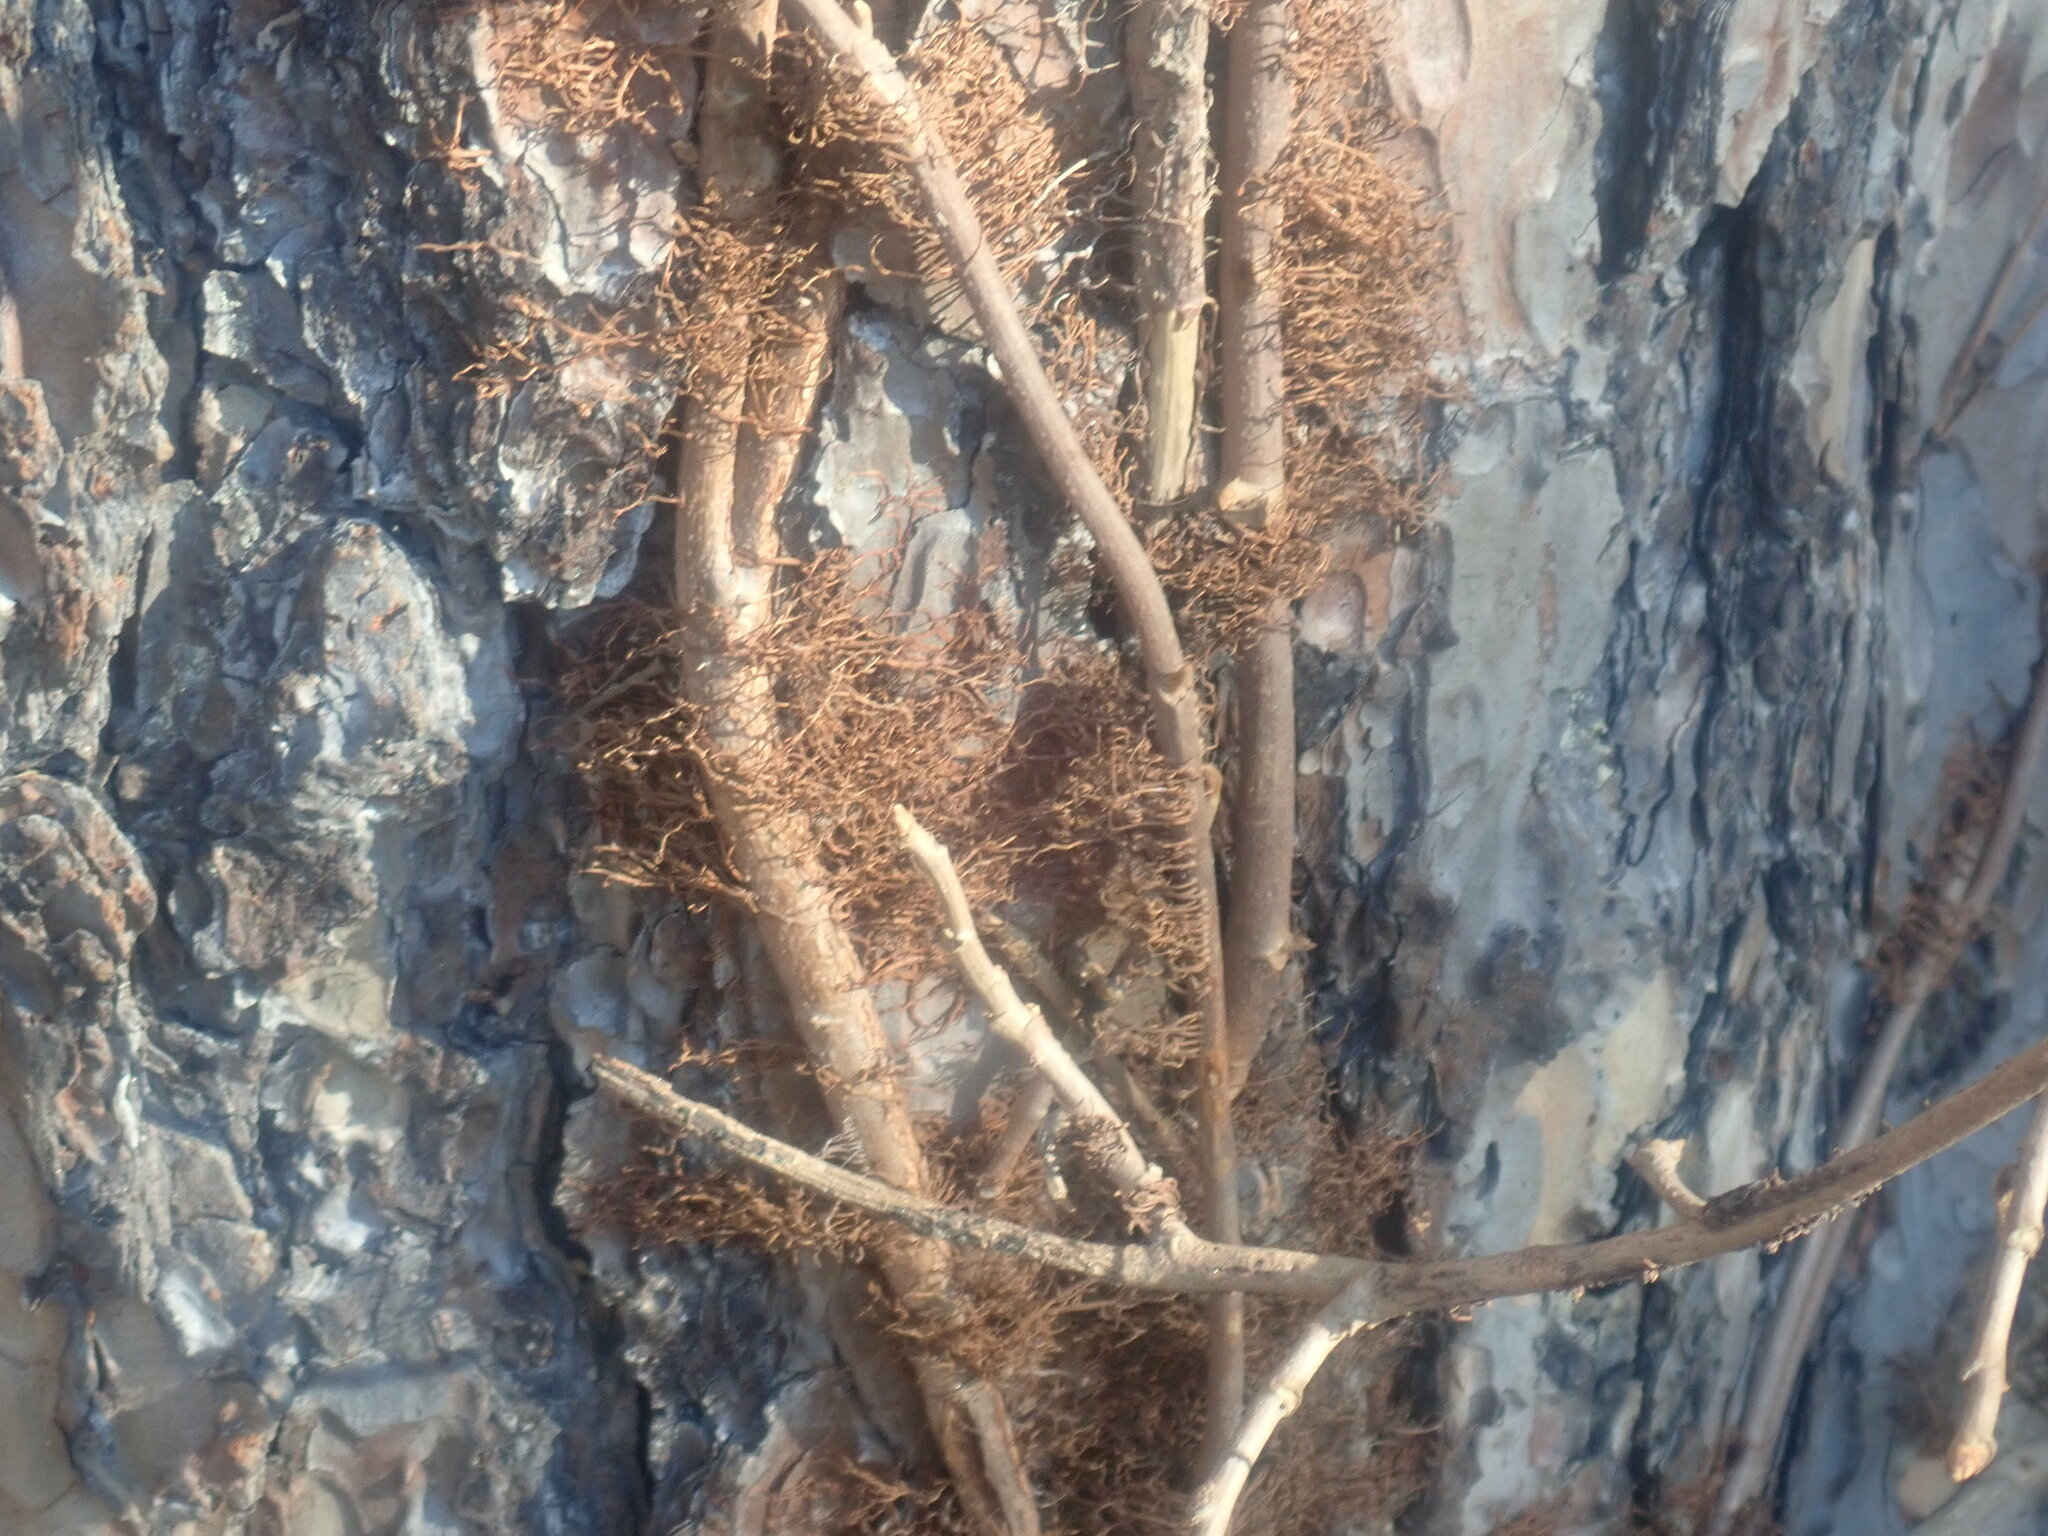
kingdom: Plantae
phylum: Tracheophyta
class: Magnoliopsida
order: Sapindales
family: Anacardiaceae
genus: Toxicodendron
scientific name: Toxicodendron radicans
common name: Poison ivy
